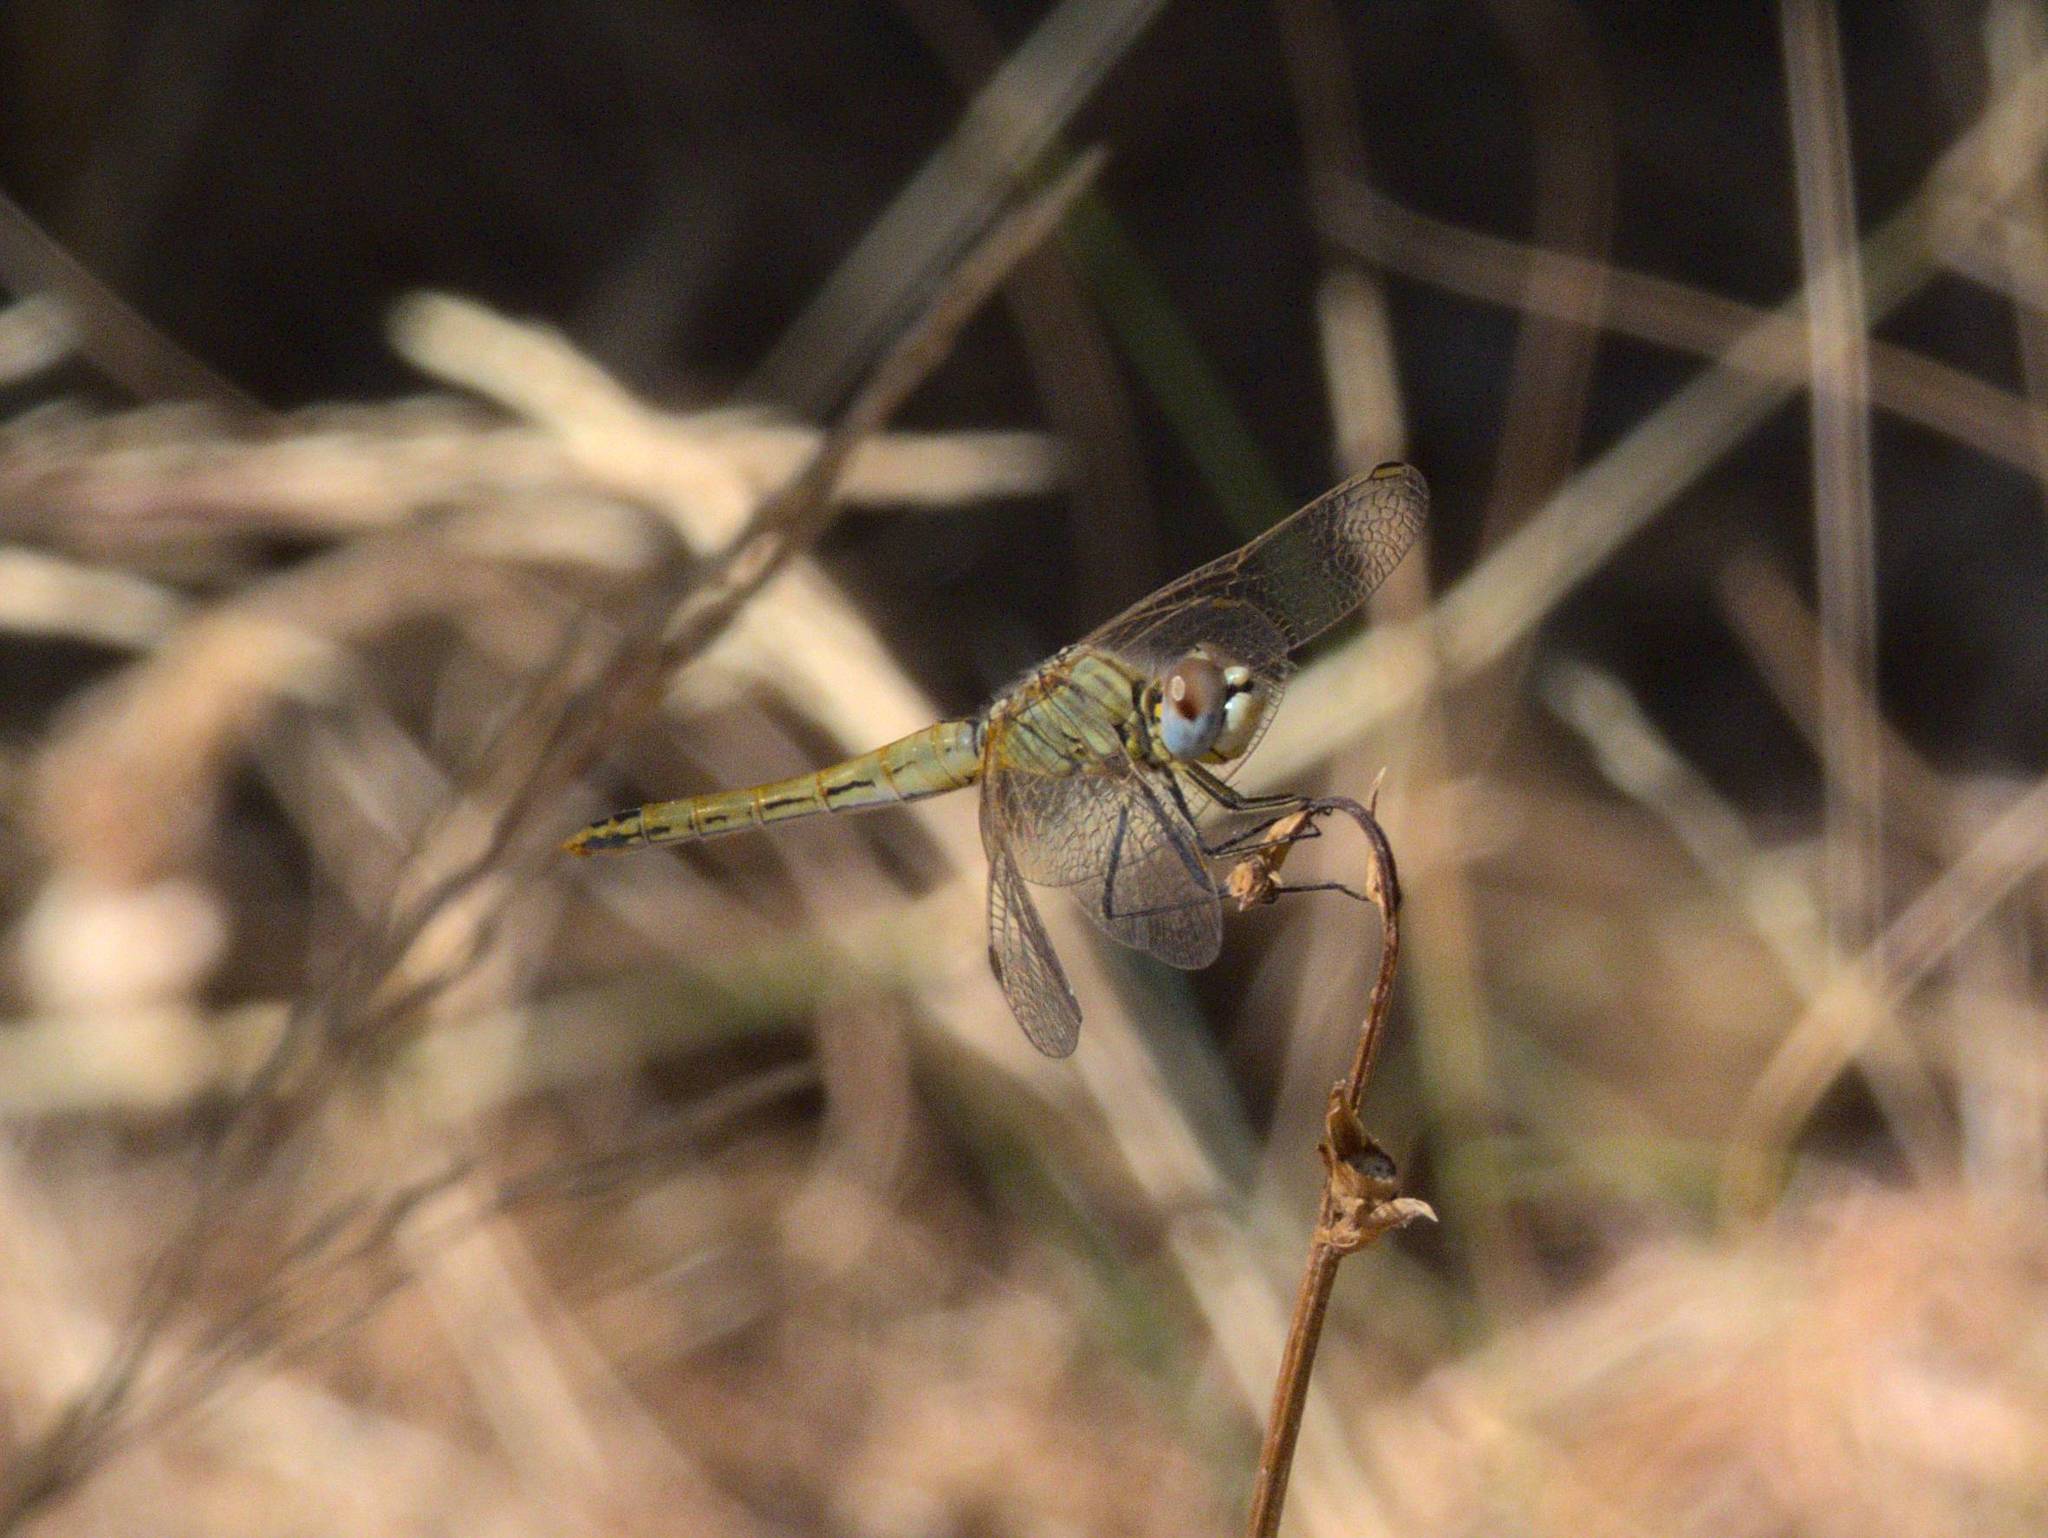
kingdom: Animalia
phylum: Arthropoda
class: Insecta
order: Odonata
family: Libellulidae
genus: Sympetrum
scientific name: Sympetrum fonscolombii
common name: Red-veined darter
